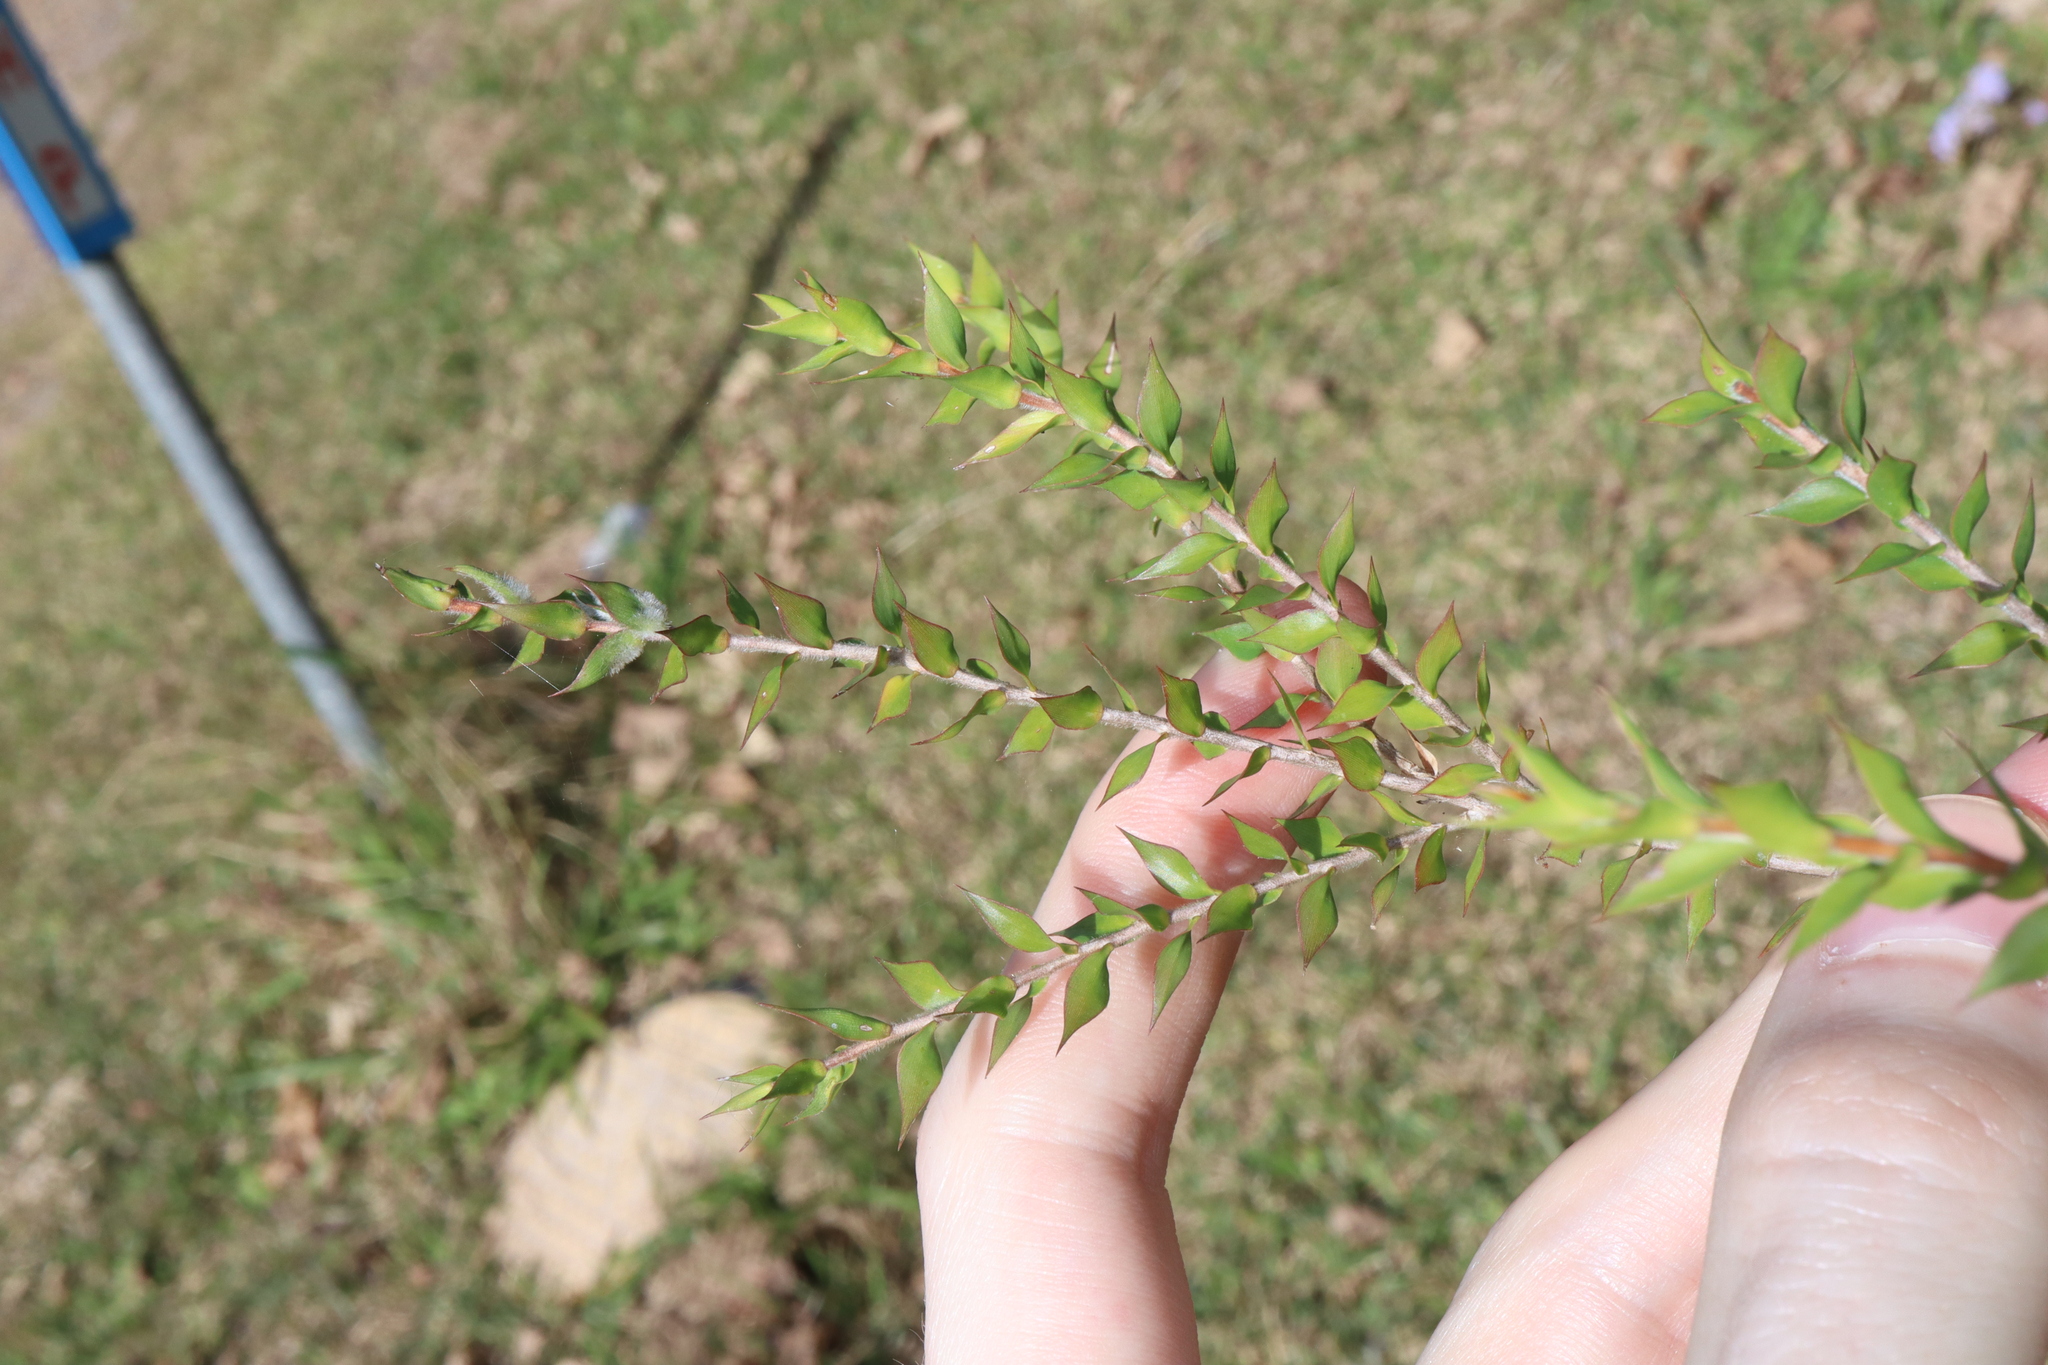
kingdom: Plantae
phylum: Tracheophyta
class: Magnoliopsida
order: Myrtales
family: Myrtaceae
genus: Melaleuca
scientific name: Melaleuca styphelioides
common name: Prickly paperbark
